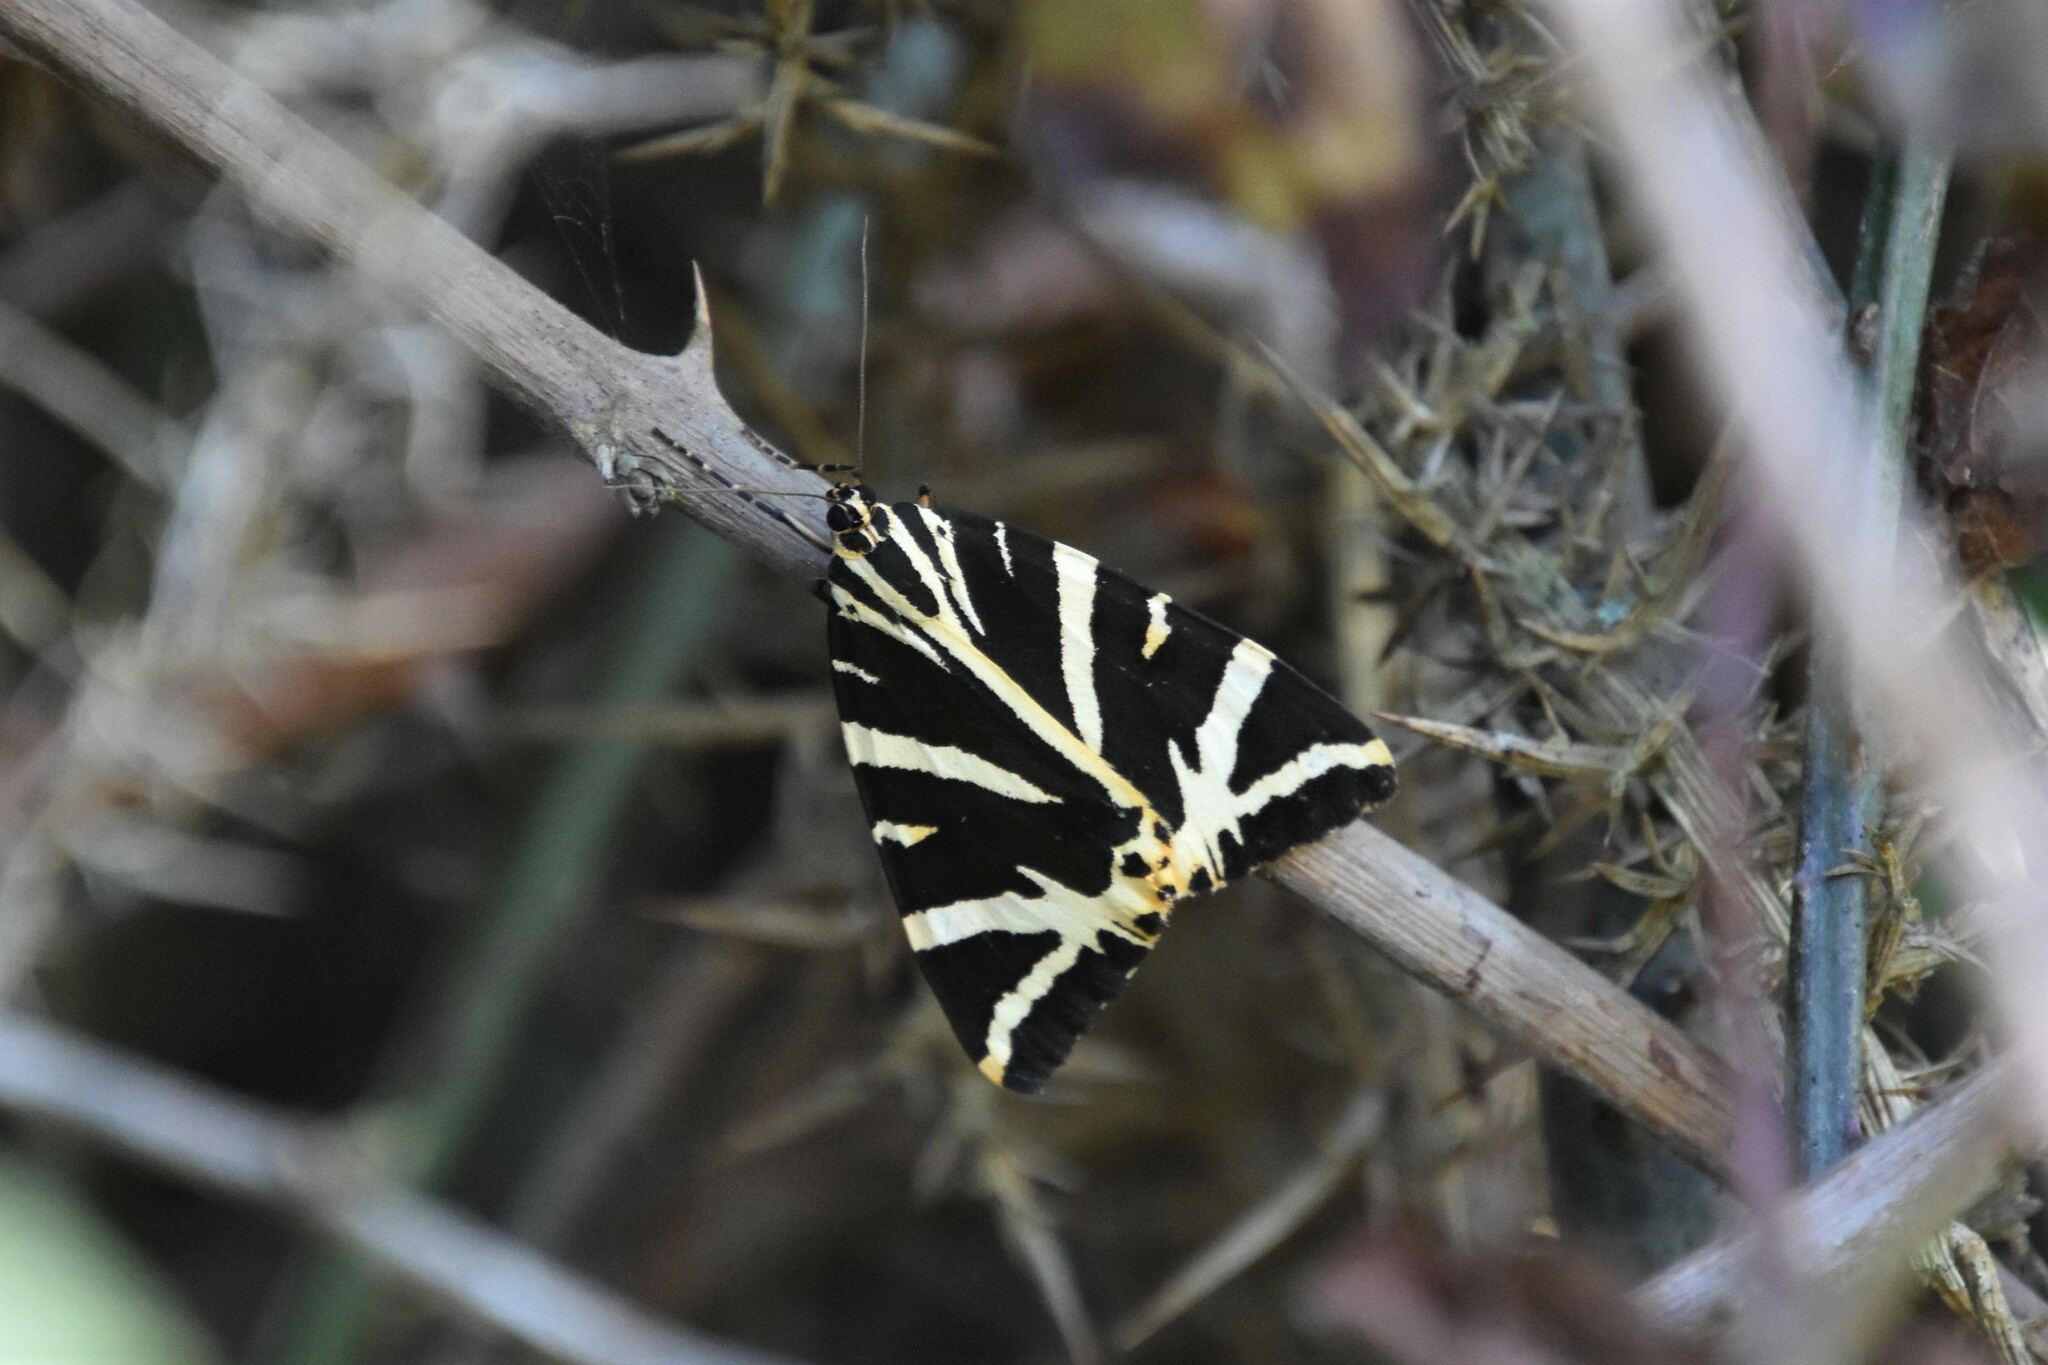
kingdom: Animalia
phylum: Arthropoda
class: Insecta
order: Lepidoptera
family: Erebidae
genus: Euplagia
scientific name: Euplagia quadripunctaria
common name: Jersey tiger
